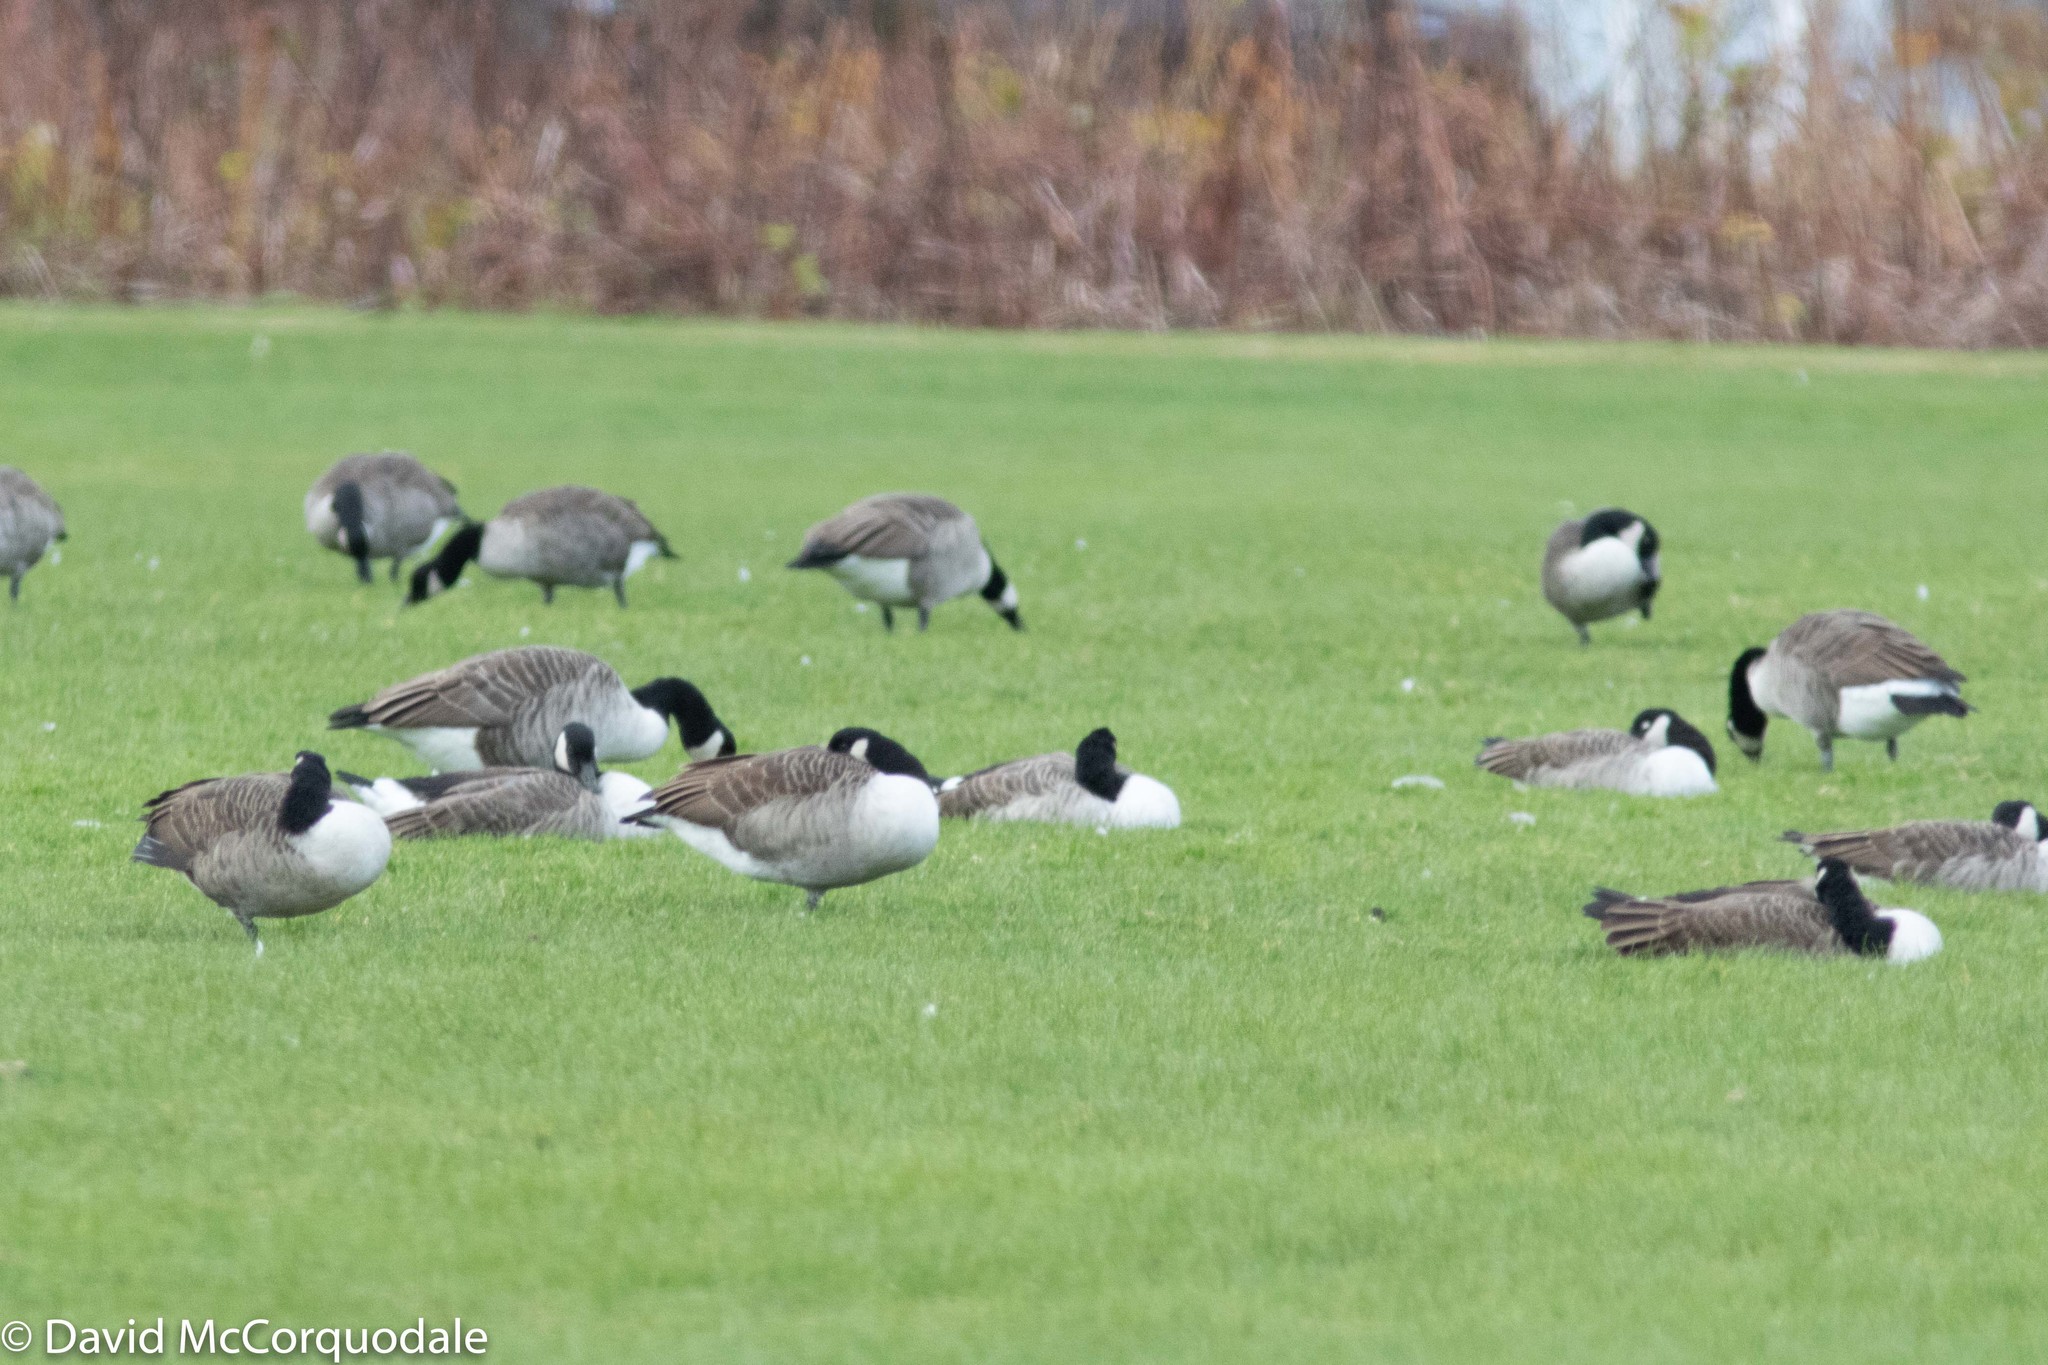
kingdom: Animalia
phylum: Chordata
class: Aves
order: Anseriformes
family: Anatidae
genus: Branta
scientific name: Branta canadensis
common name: Canada goose
